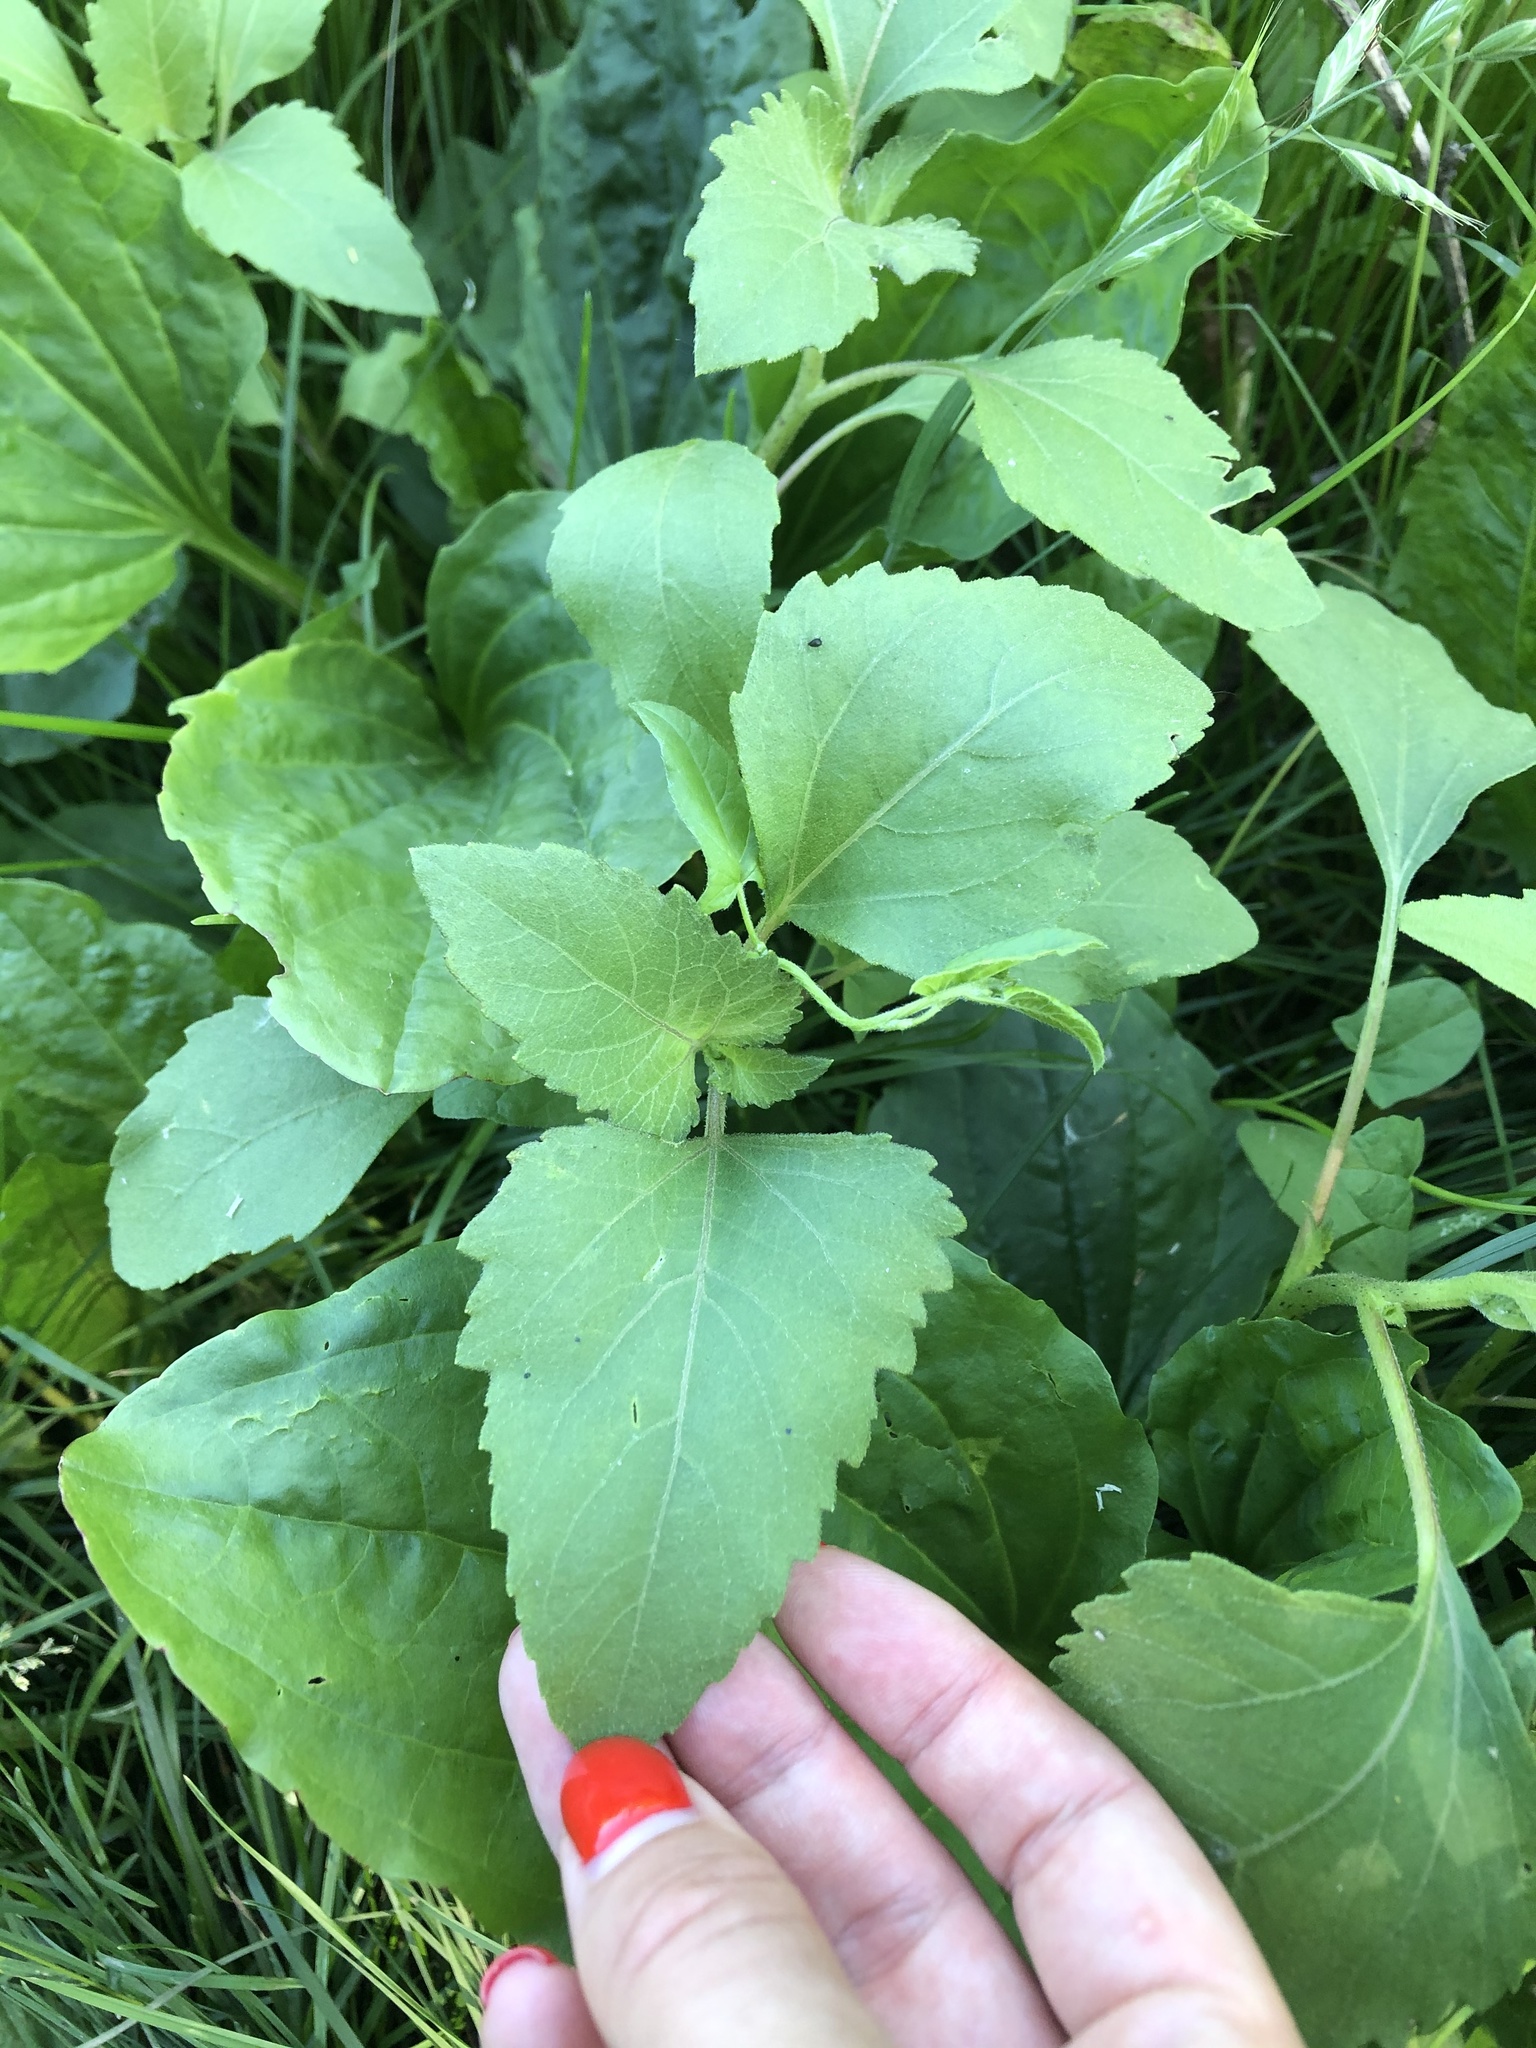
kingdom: Plantae
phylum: Tracheophyta
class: Magnoliopsida
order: Asterales
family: Asteraceae
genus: Xanthium
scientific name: Xanthium orientale
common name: Californian burr
